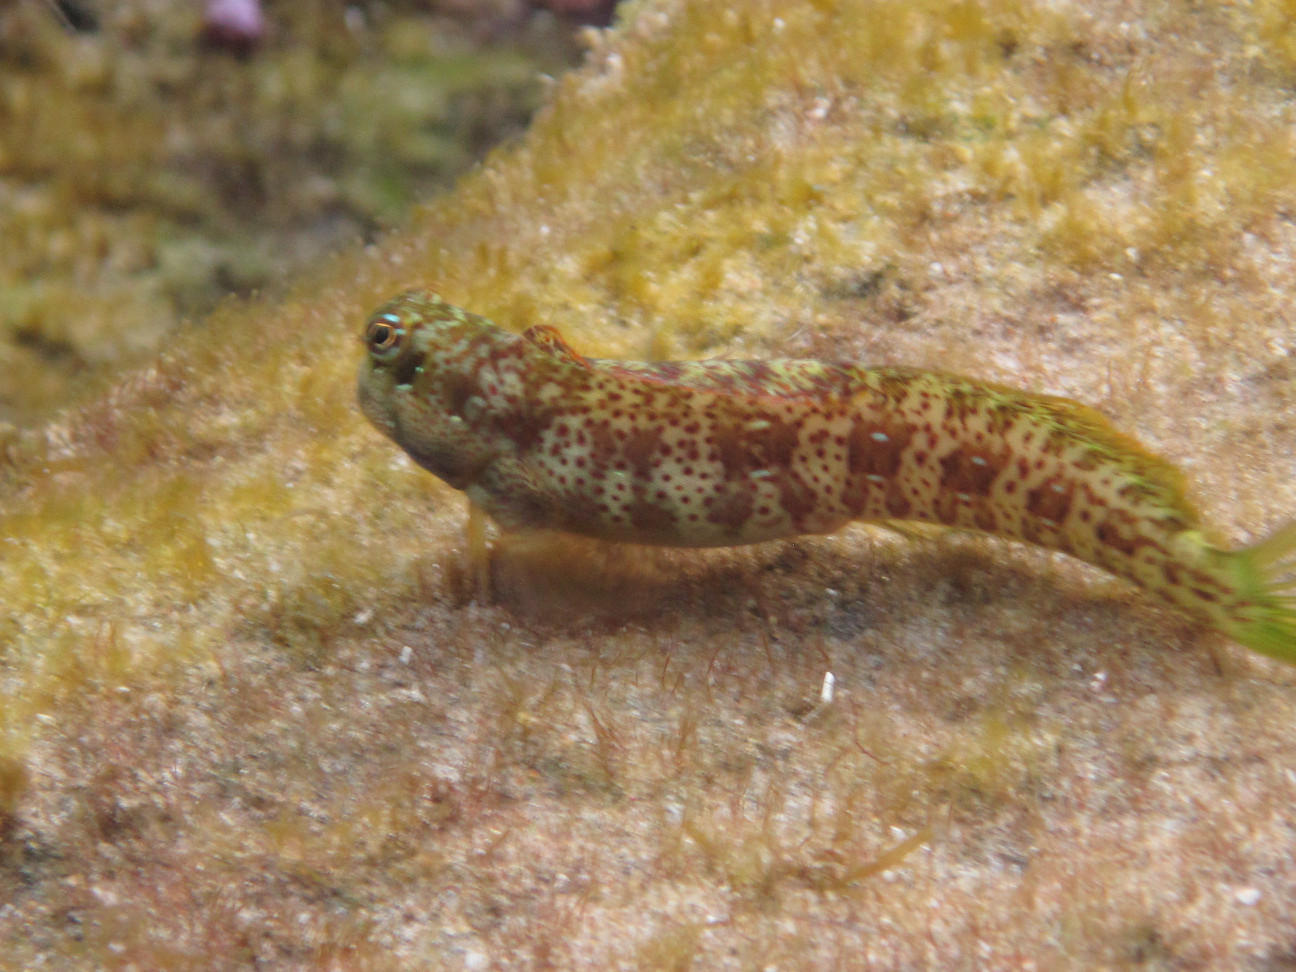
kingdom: Animalia
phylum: Chordata
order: Perciformes
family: Blenniidae
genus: Blenniella
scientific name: Blenniella periophthalmus
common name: Blue-dashed rockskipper
